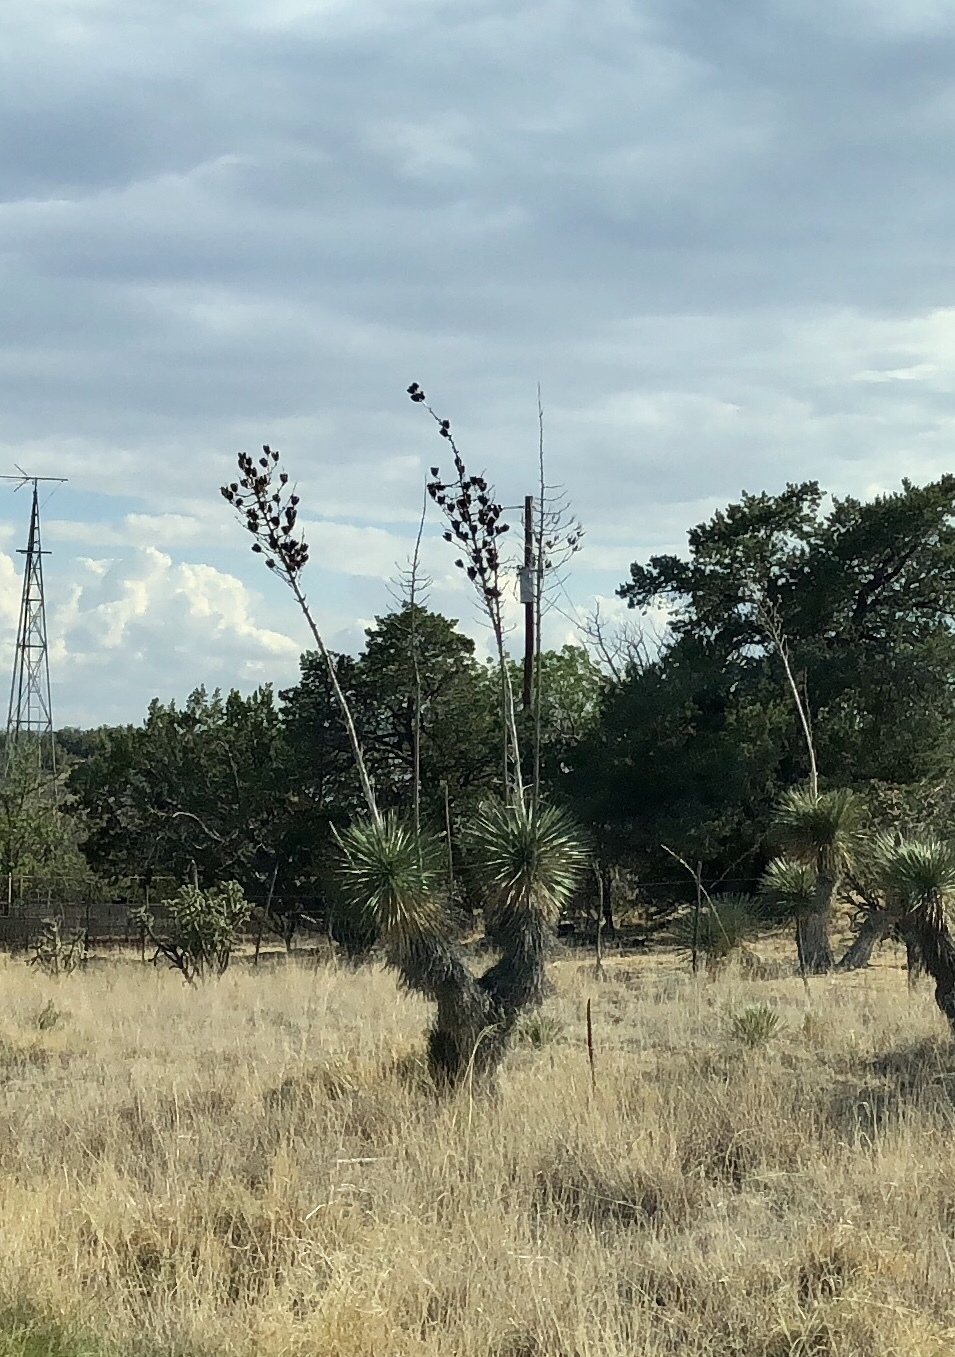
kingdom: Plantae
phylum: Tracheophyta
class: Liliopsida
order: Asparagales
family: Asparagaceae
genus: Yucca
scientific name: Yucca elata
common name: Palmella
